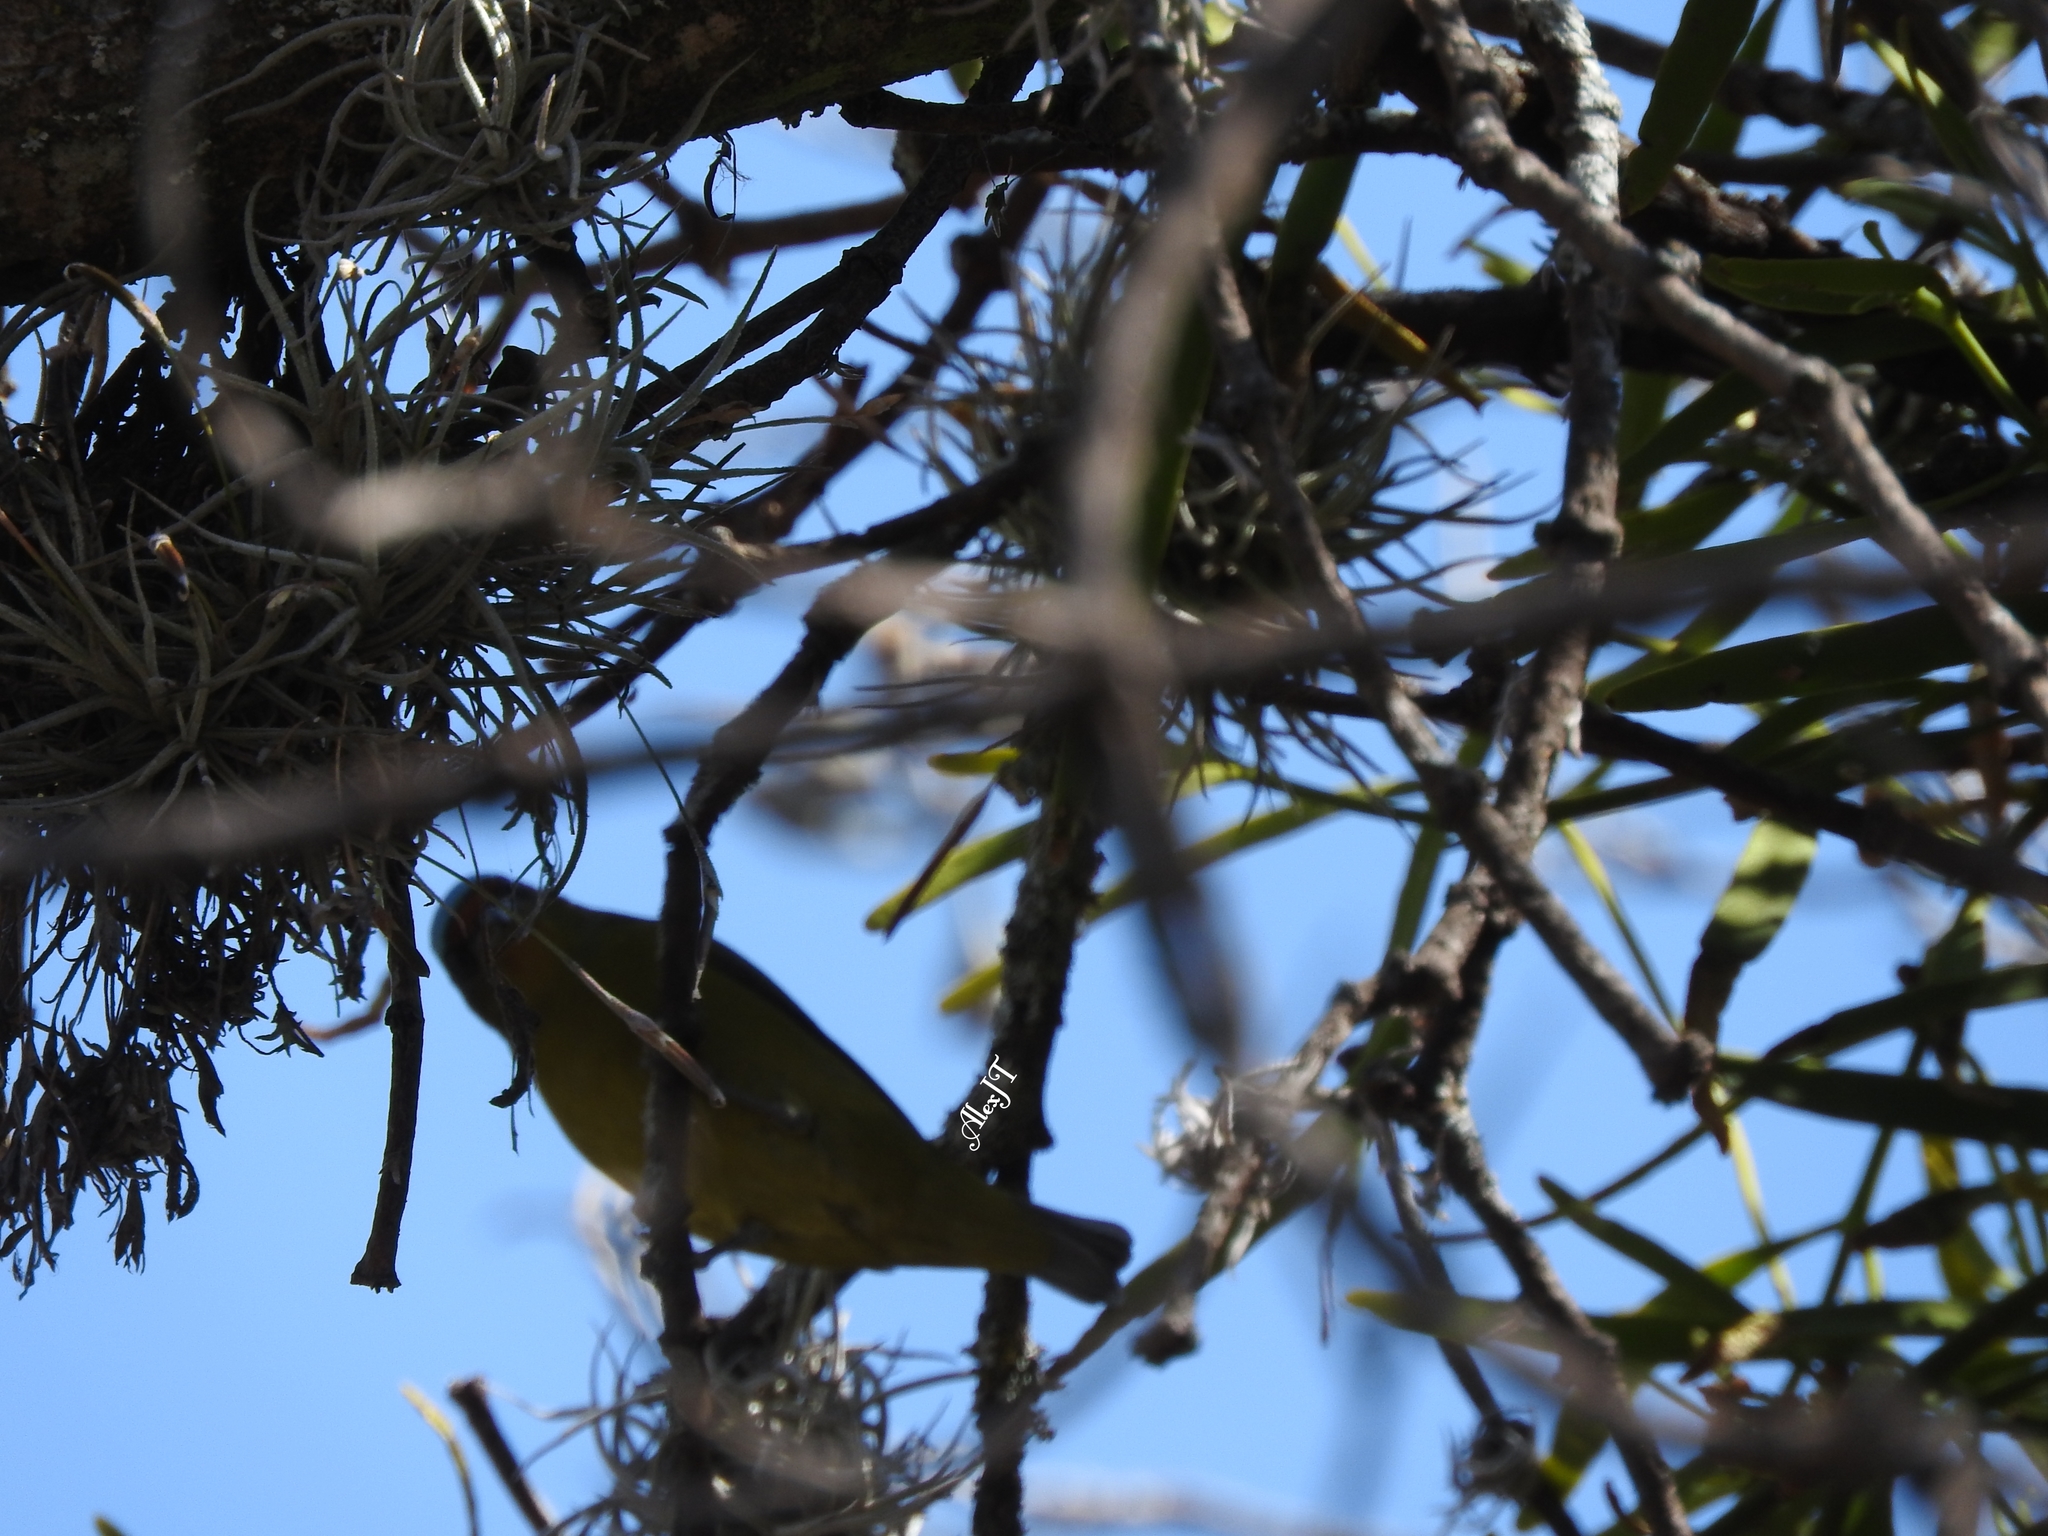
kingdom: Animalia
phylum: Chordata
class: Aves
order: Passeriformes
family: Fringillidae
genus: Euphonia
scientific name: Euphonia elegantissima
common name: Elegant euphonia
